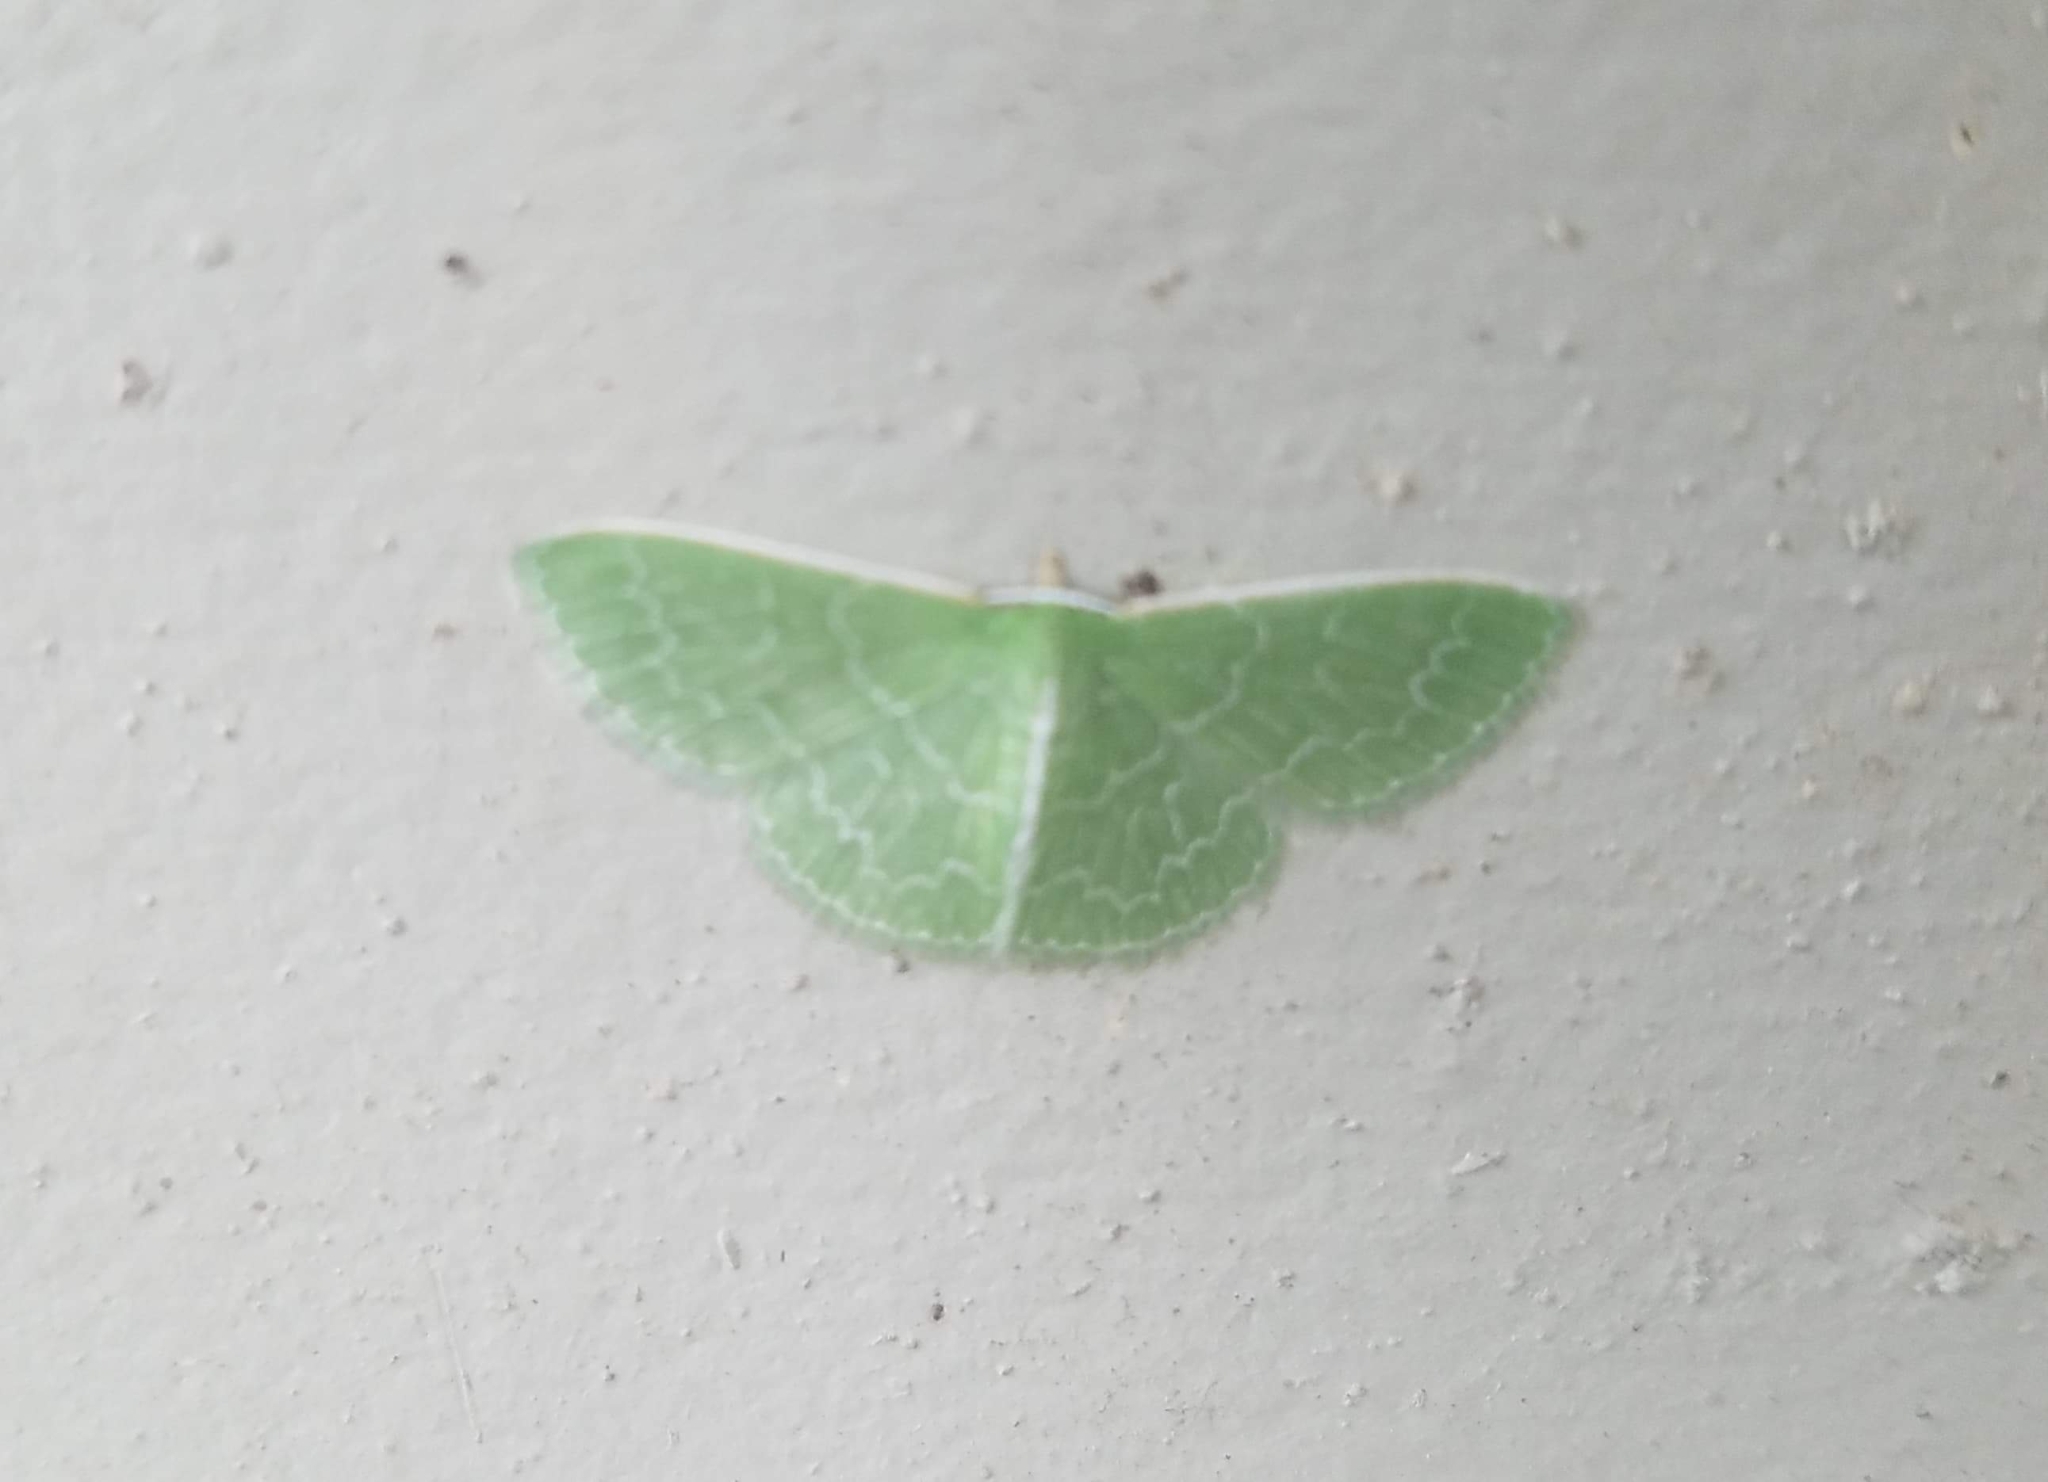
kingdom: Animalia
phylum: Arthropoda
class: Insecta
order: Lepidoptera
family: Geometridae
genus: Synchlora
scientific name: Synchlora frondaria
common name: Southern emerald
